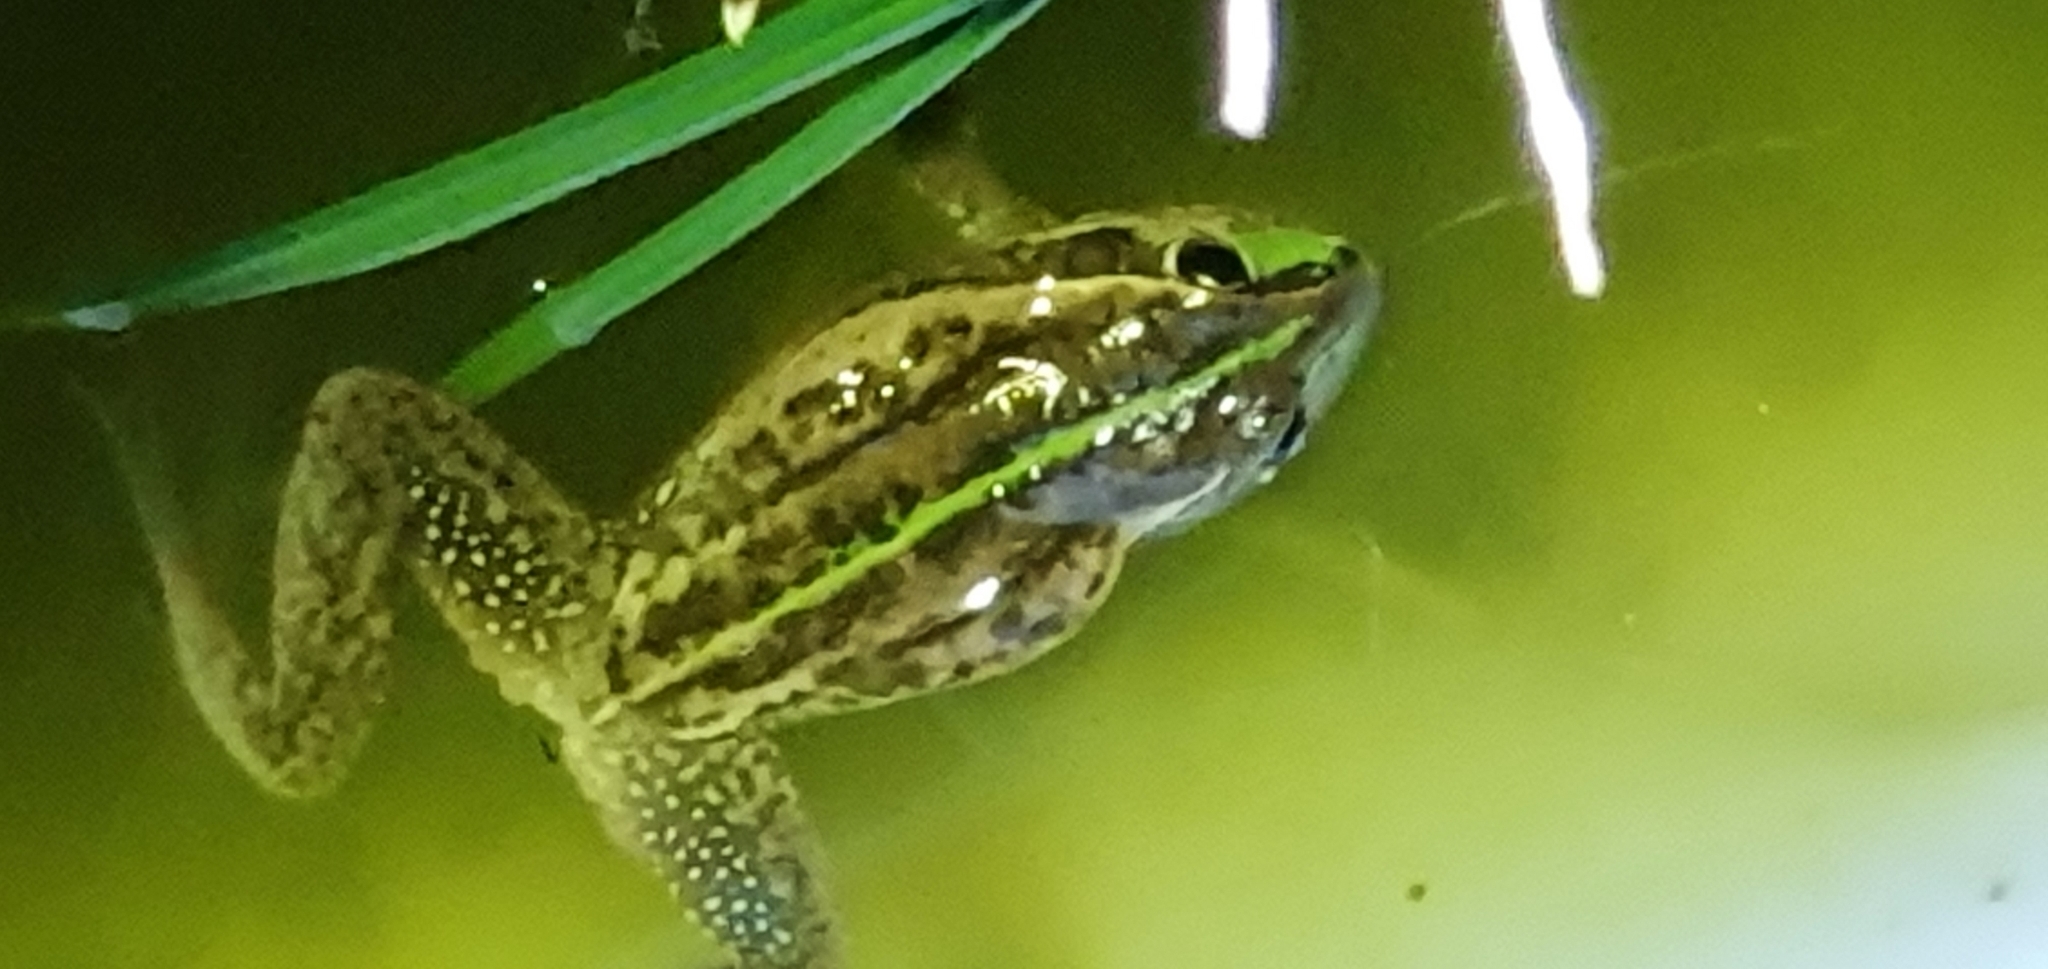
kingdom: Animalia
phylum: Chordata
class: Amphibia
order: Anura
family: Pelodryadidae
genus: Ranoidea
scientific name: Ranoidea alboguttata
